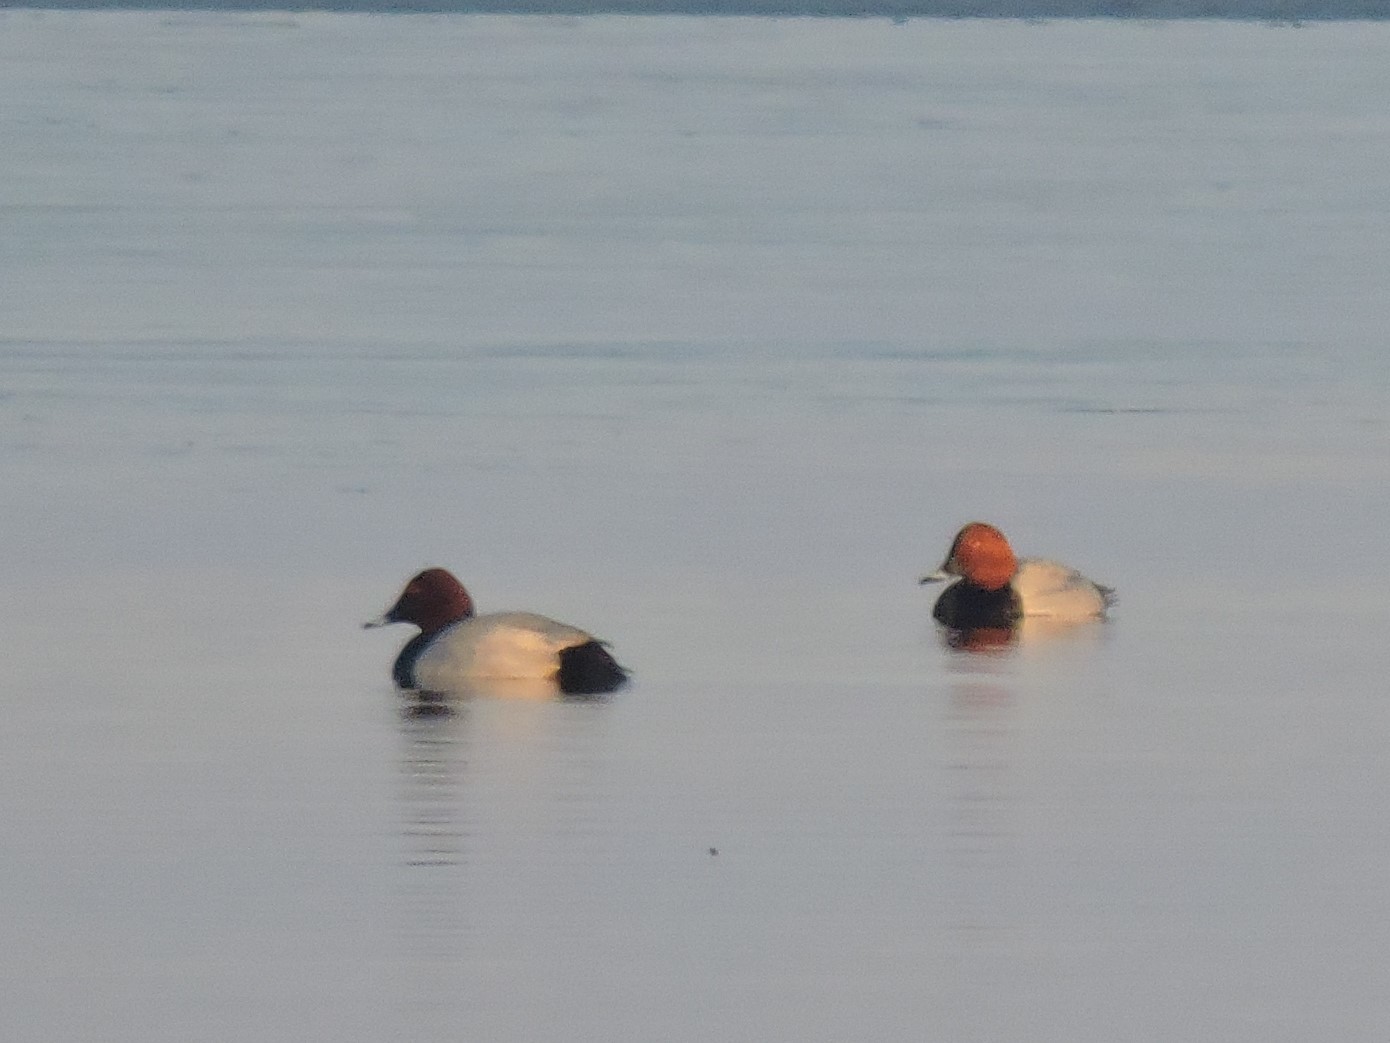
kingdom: Animalia
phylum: Chordata
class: Aves
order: Anseriformes
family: Anatidae
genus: Aythya
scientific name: Aythya ferina
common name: Common pochard
